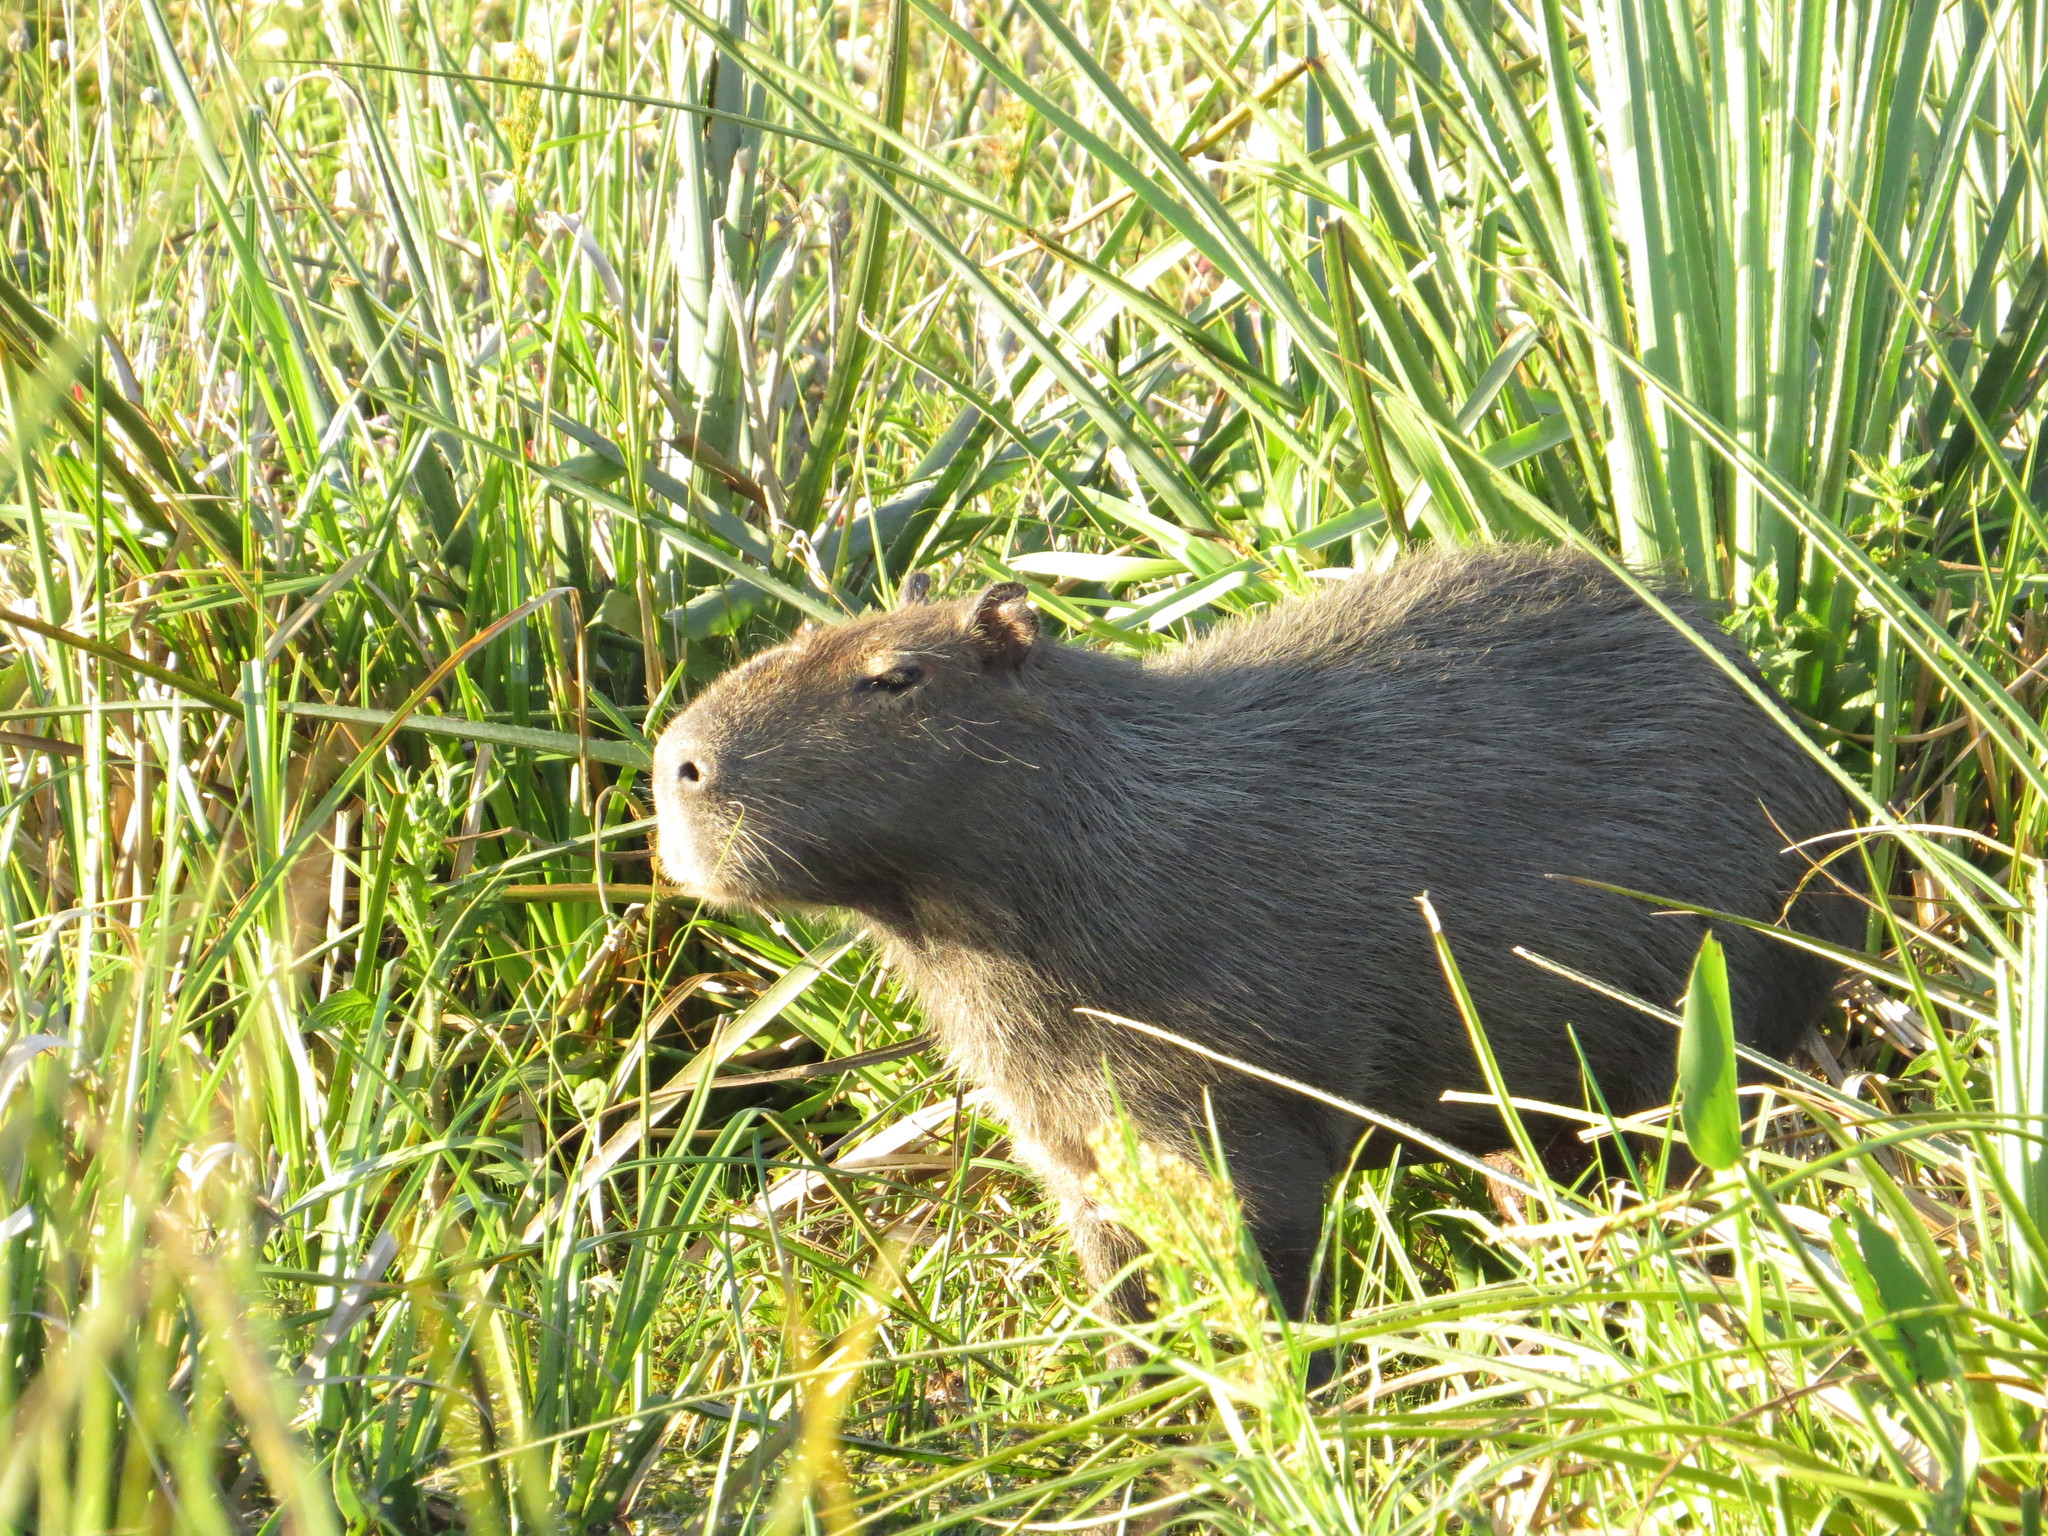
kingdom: Animalia
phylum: Chordata
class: Mammalia
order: Rodentia
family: Caviidae
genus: Hydrochoerus
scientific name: Hydrochoerus hydrochaeris
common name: Capybara
